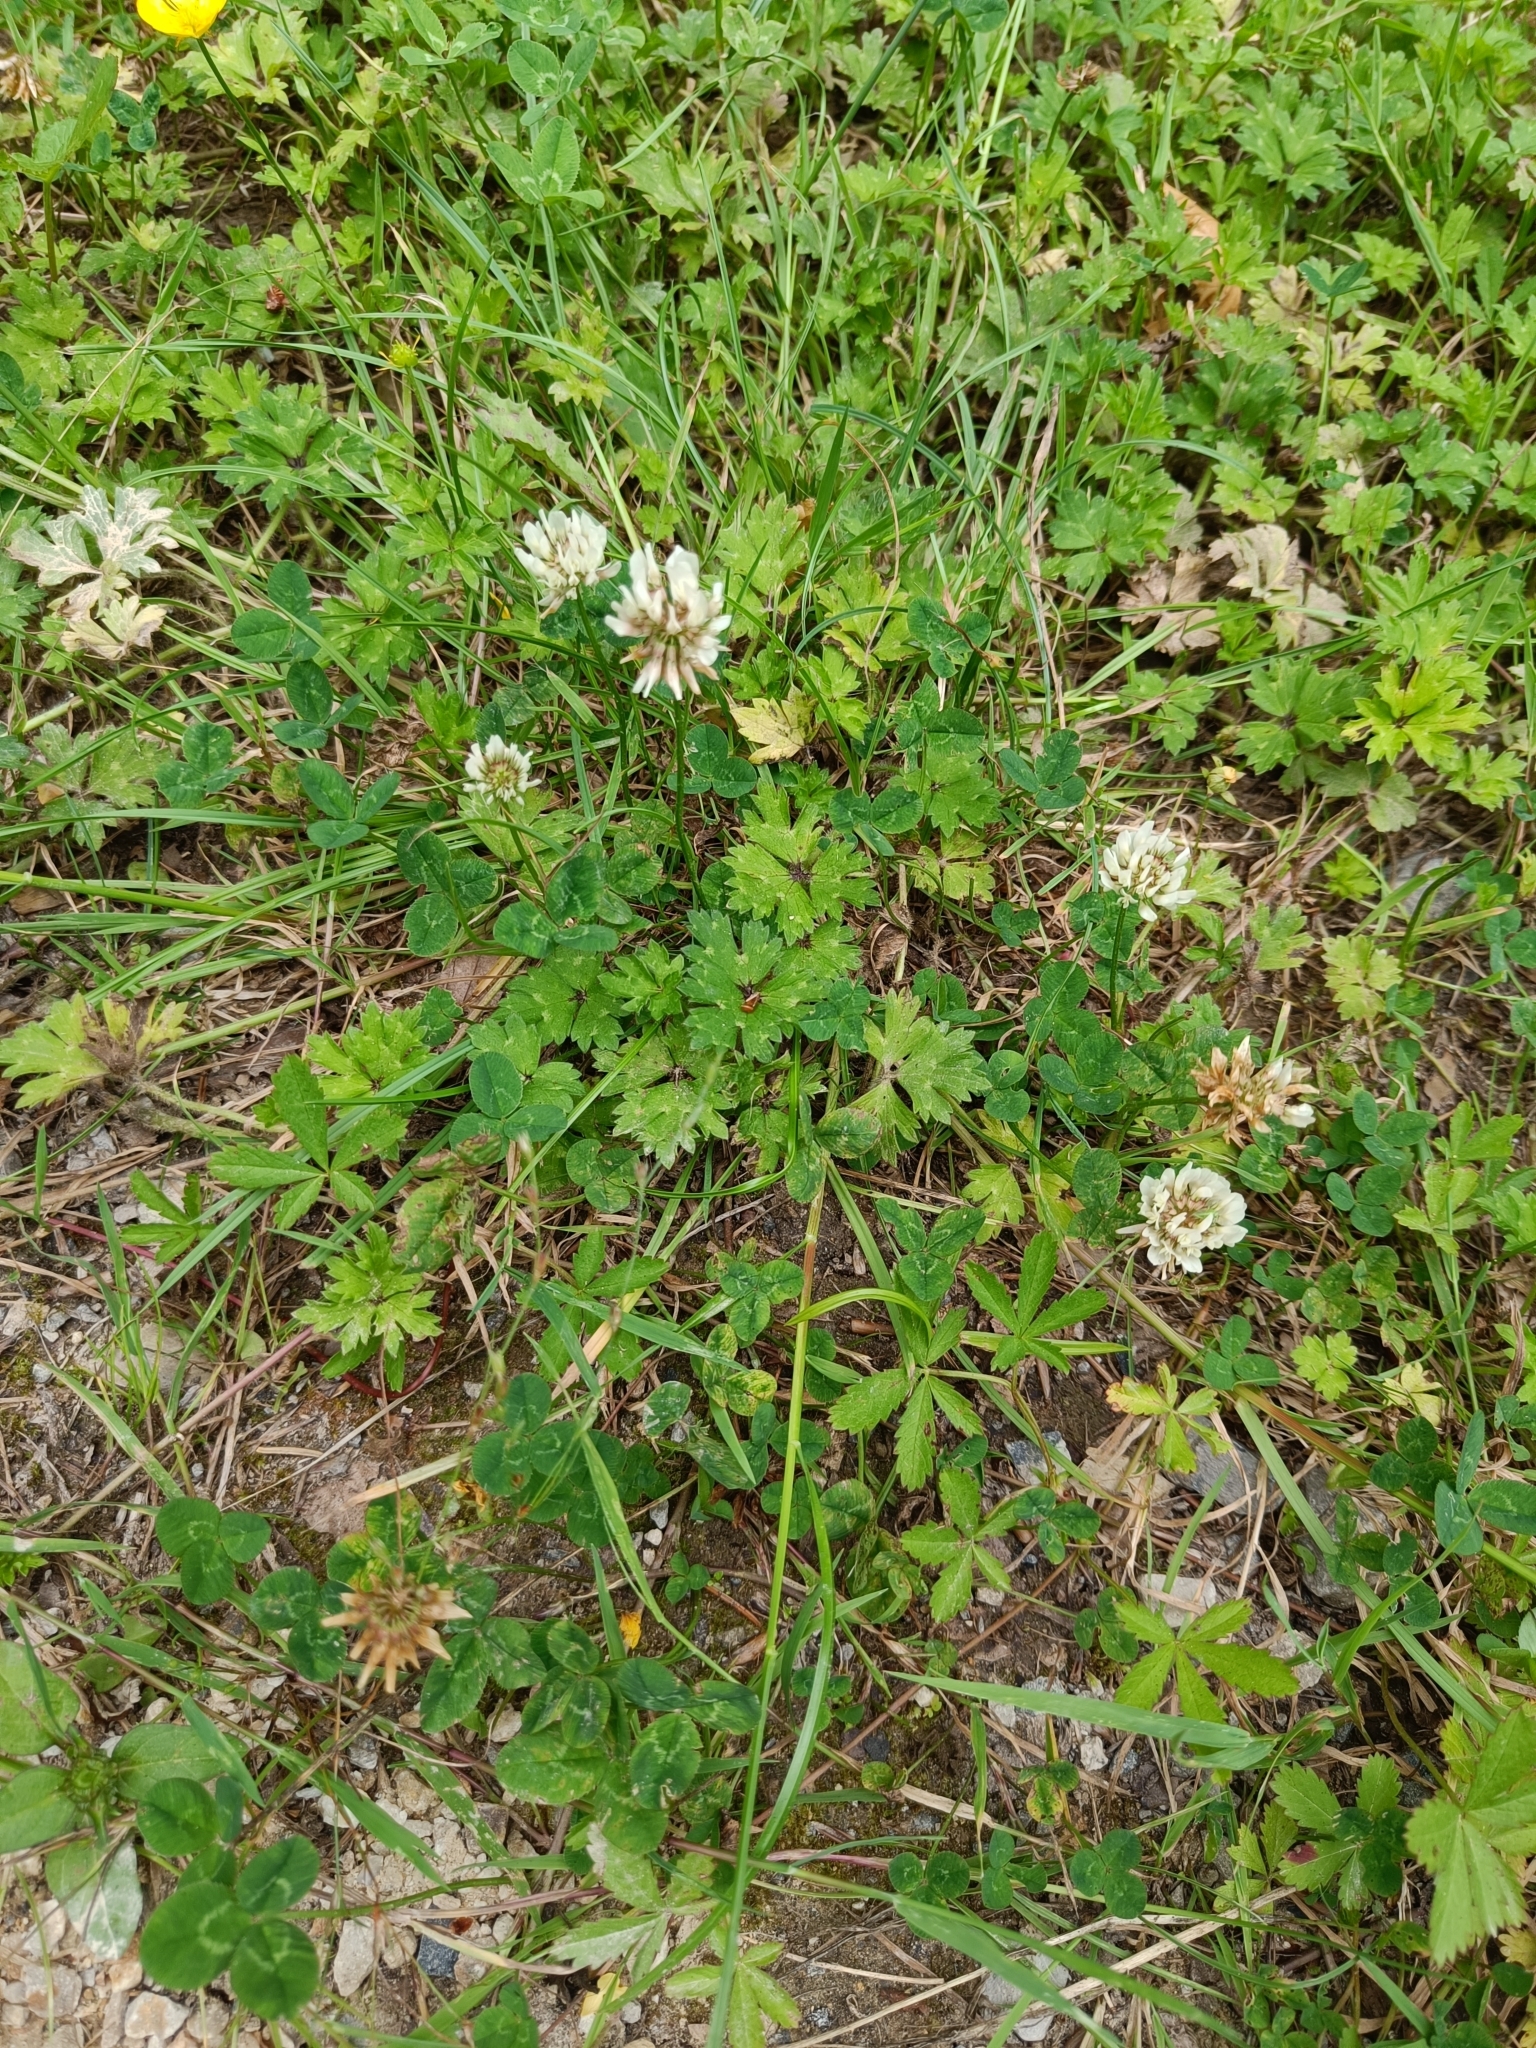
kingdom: Plantae
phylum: Tracheophyta
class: Magnoliopsida
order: Fabales
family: Fabaceae
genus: Trifolium
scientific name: Trifolium repens
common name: White clover
